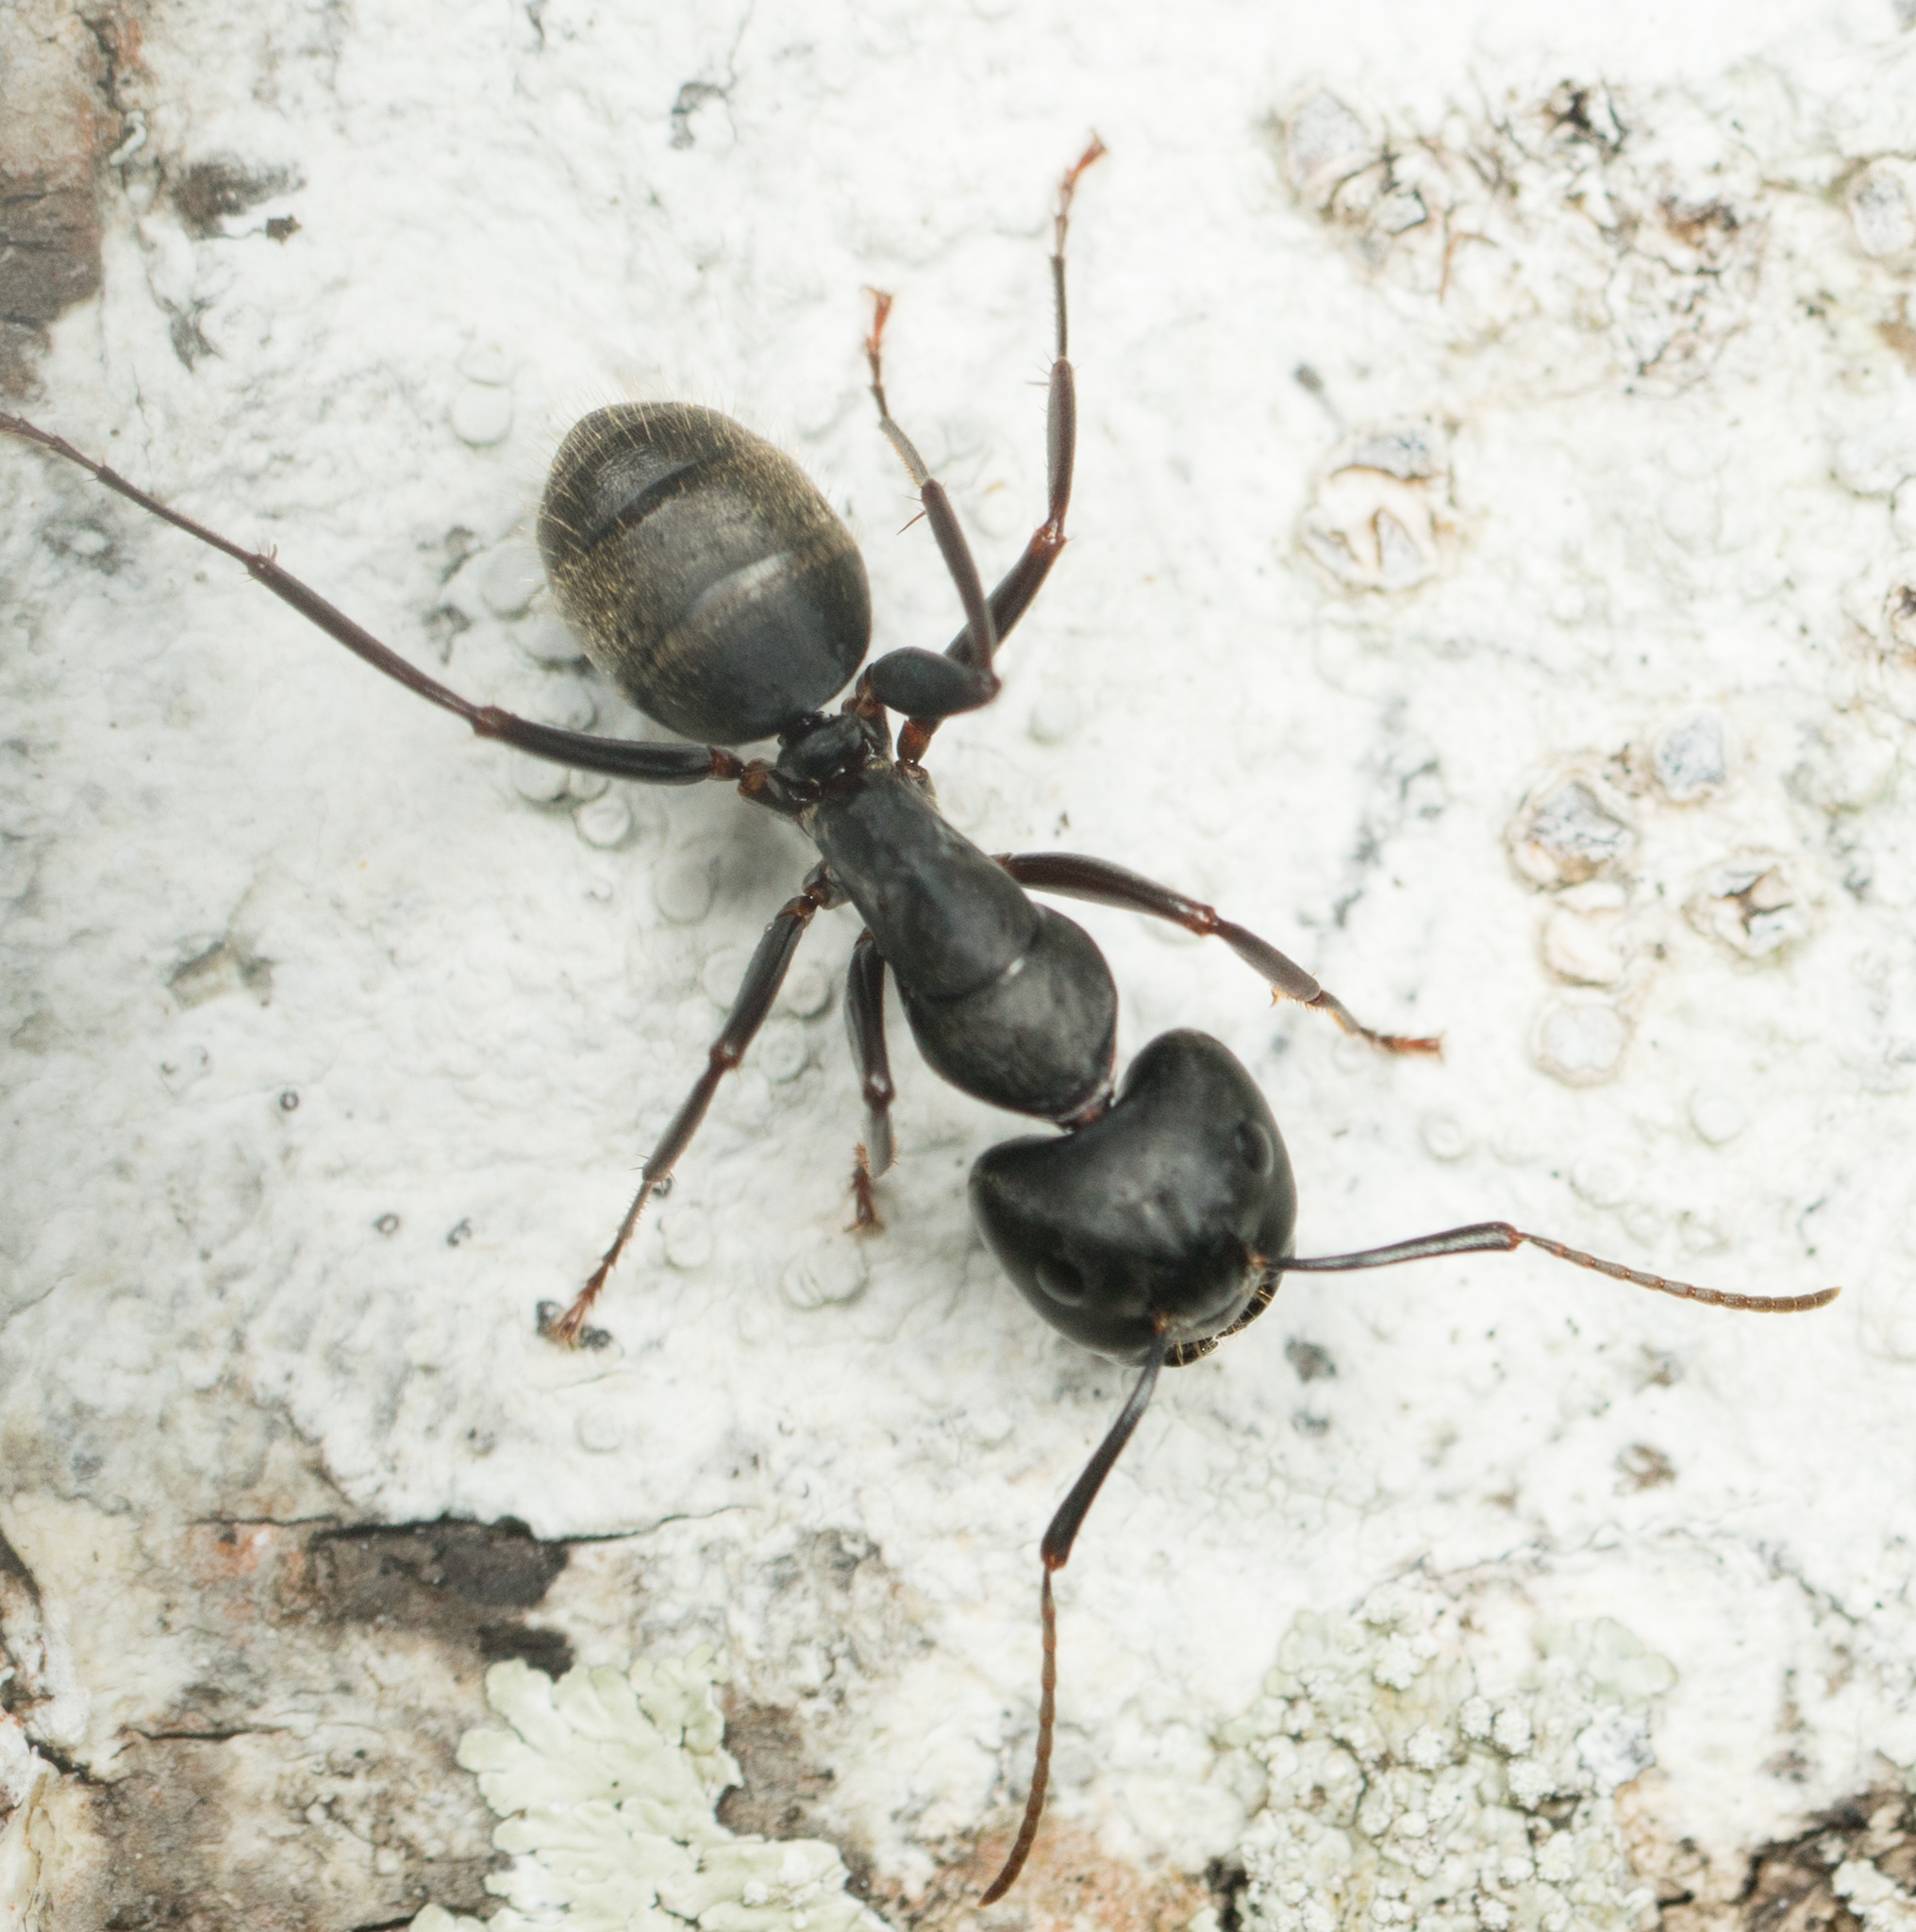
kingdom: Animalia
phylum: Arthropoda
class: Insecta
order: Hymenoptera
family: Formicidae
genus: Camponotus
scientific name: Camponotus pennsylvanicus
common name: Black carpenter ant
